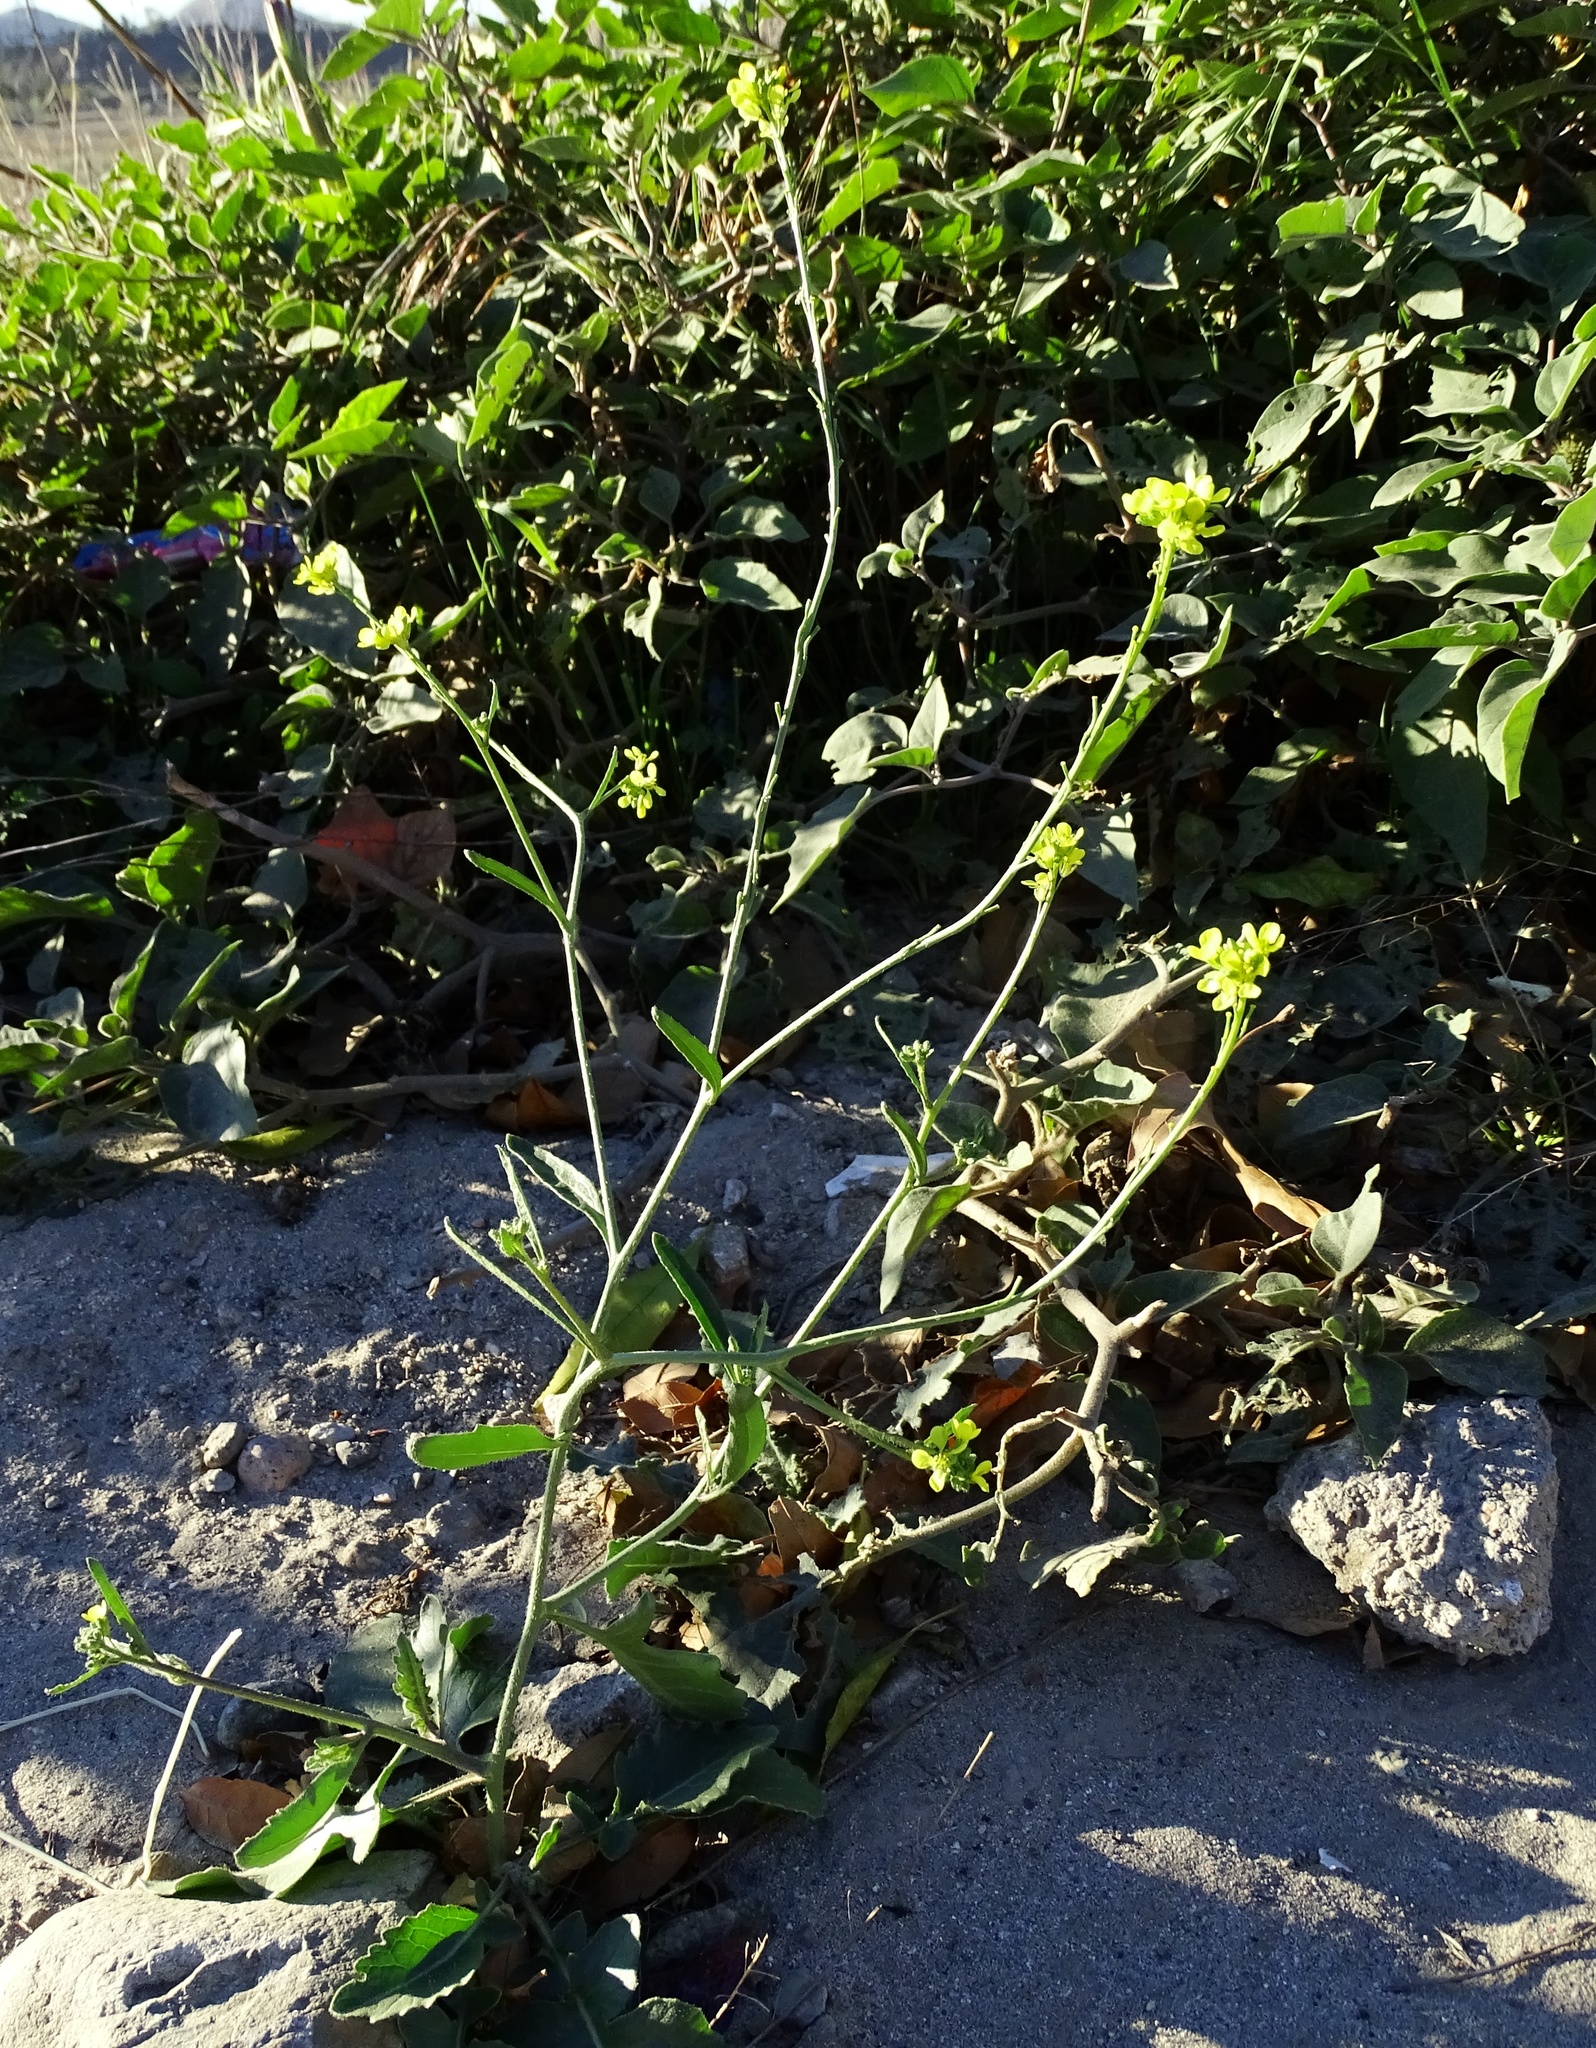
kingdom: Plantae
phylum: Tracheophyta
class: Magnoliopsida
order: Brassicales
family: Brassicaceae
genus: Hirschfeldia
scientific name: Hirschfeldia incana
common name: Hoary mustard
